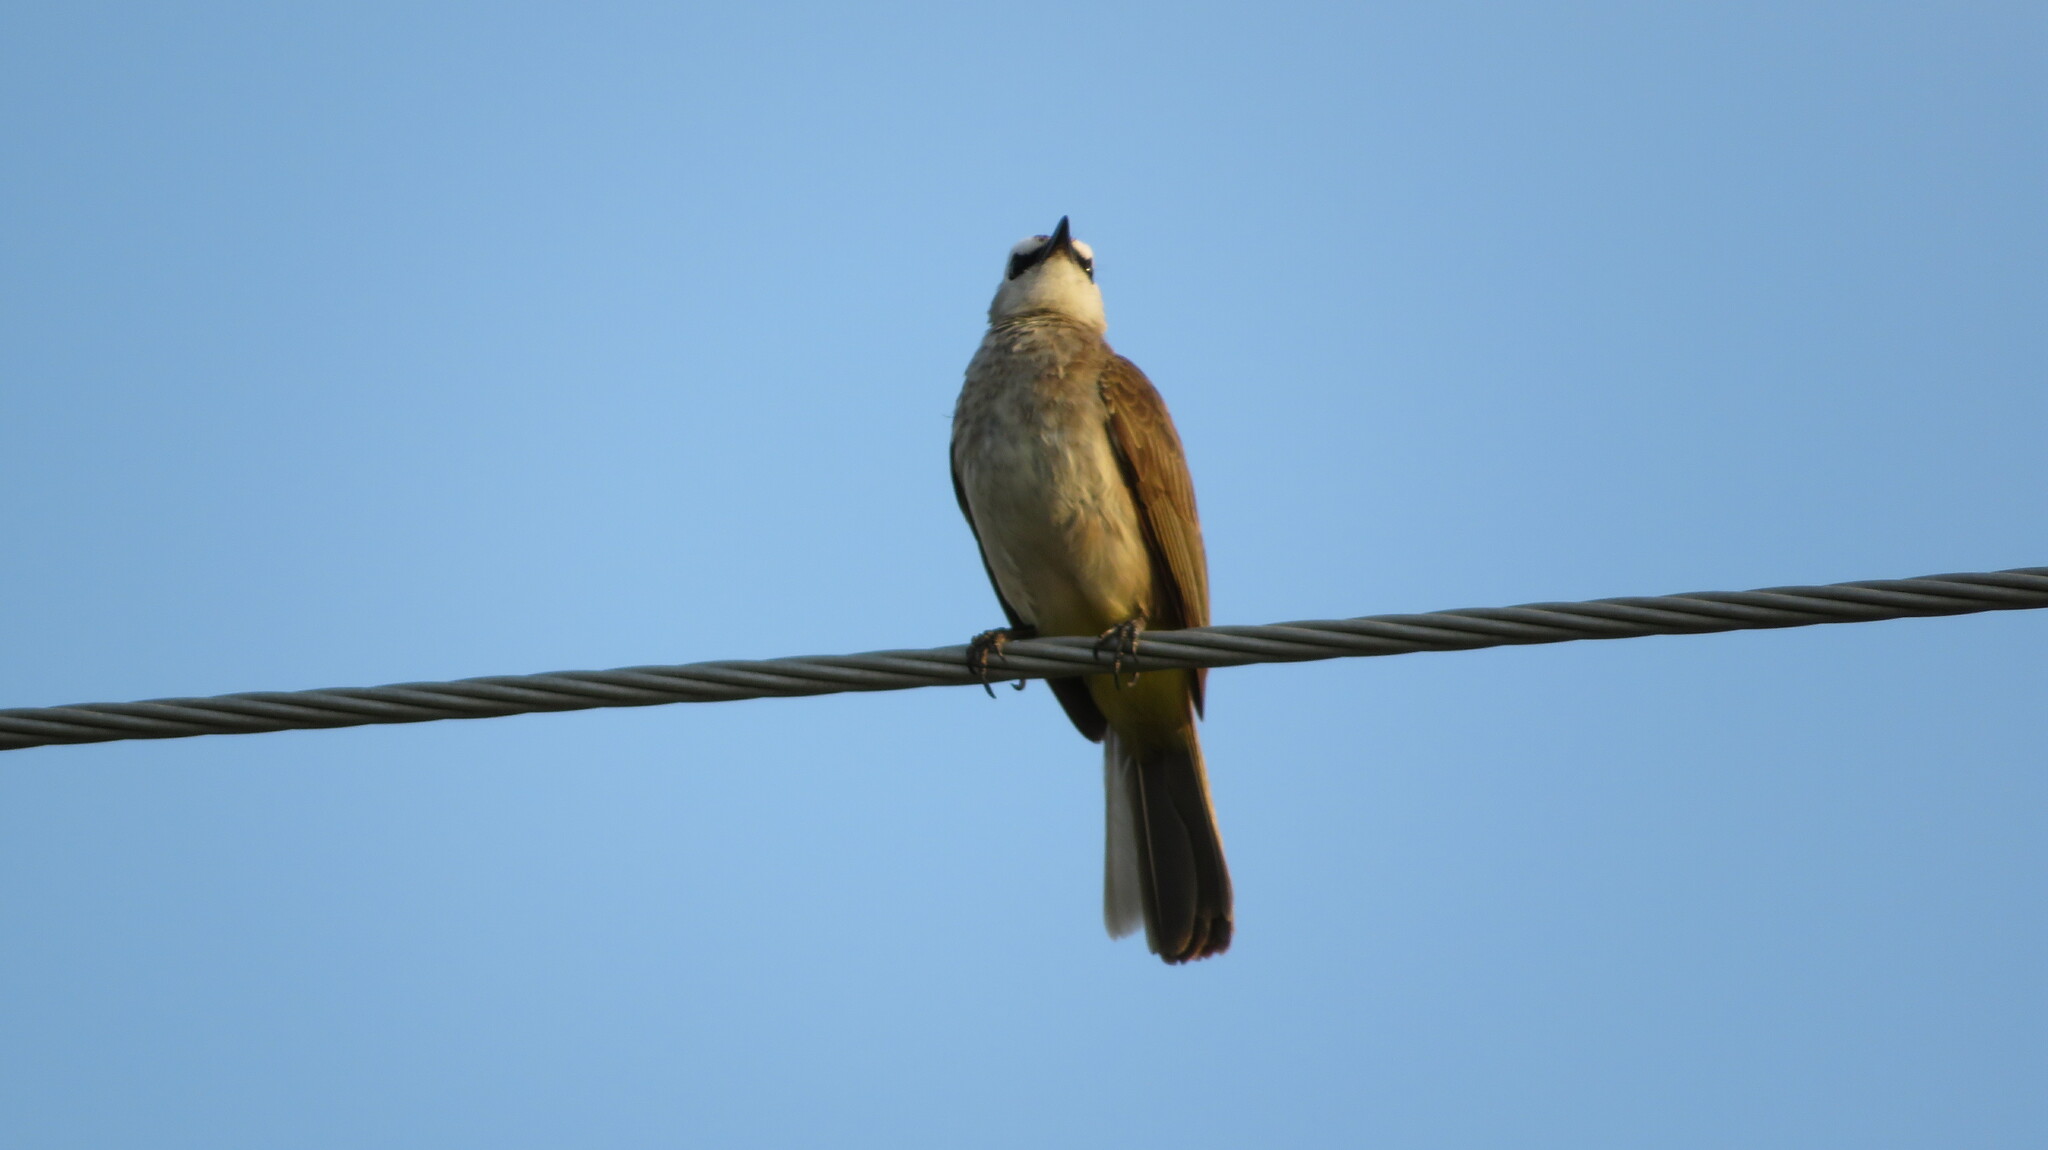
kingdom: Animalia
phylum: Chordata
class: Aves
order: Passeriformes
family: Pycnonotidae
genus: Pycnonotus
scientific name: Pycnonotus goiavier
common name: Yellow-vented bulbul
